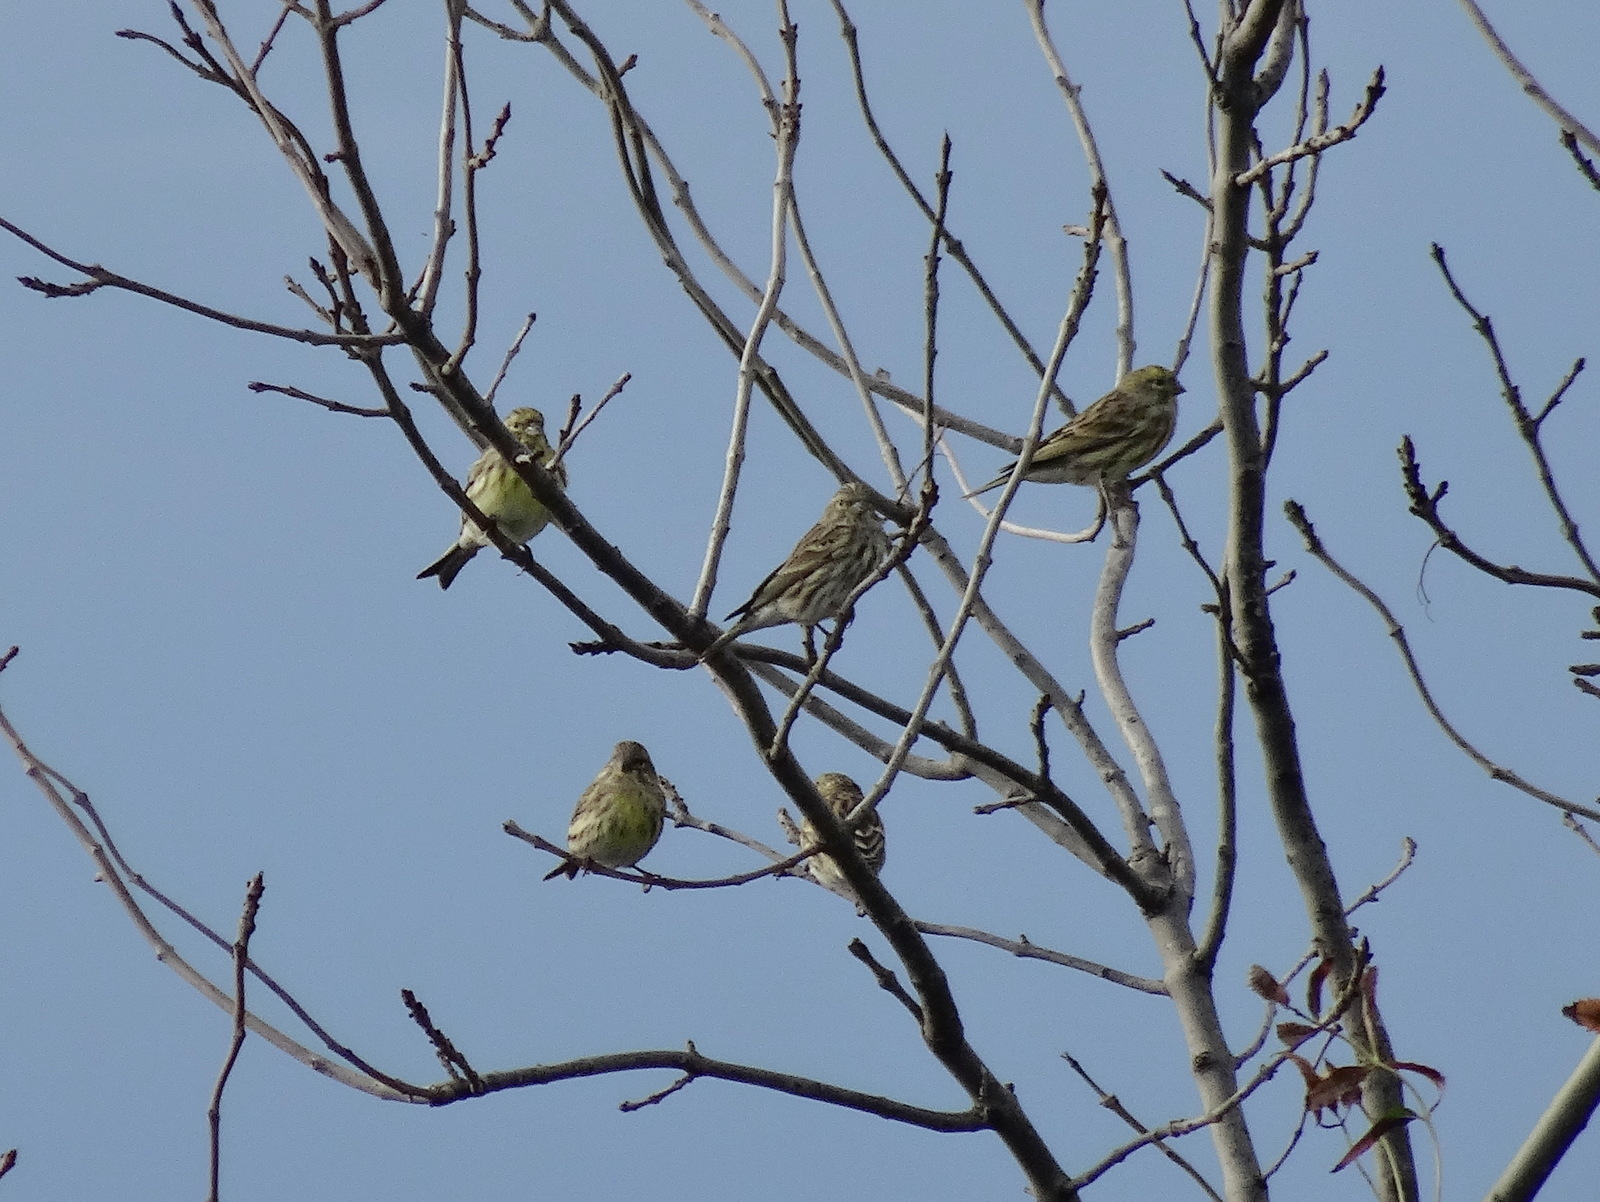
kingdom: Animalia
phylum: Chordata
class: Aves
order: Passeriformes
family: Fringillidae
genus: Serinus
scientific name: Serinus serinus
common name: European serin
